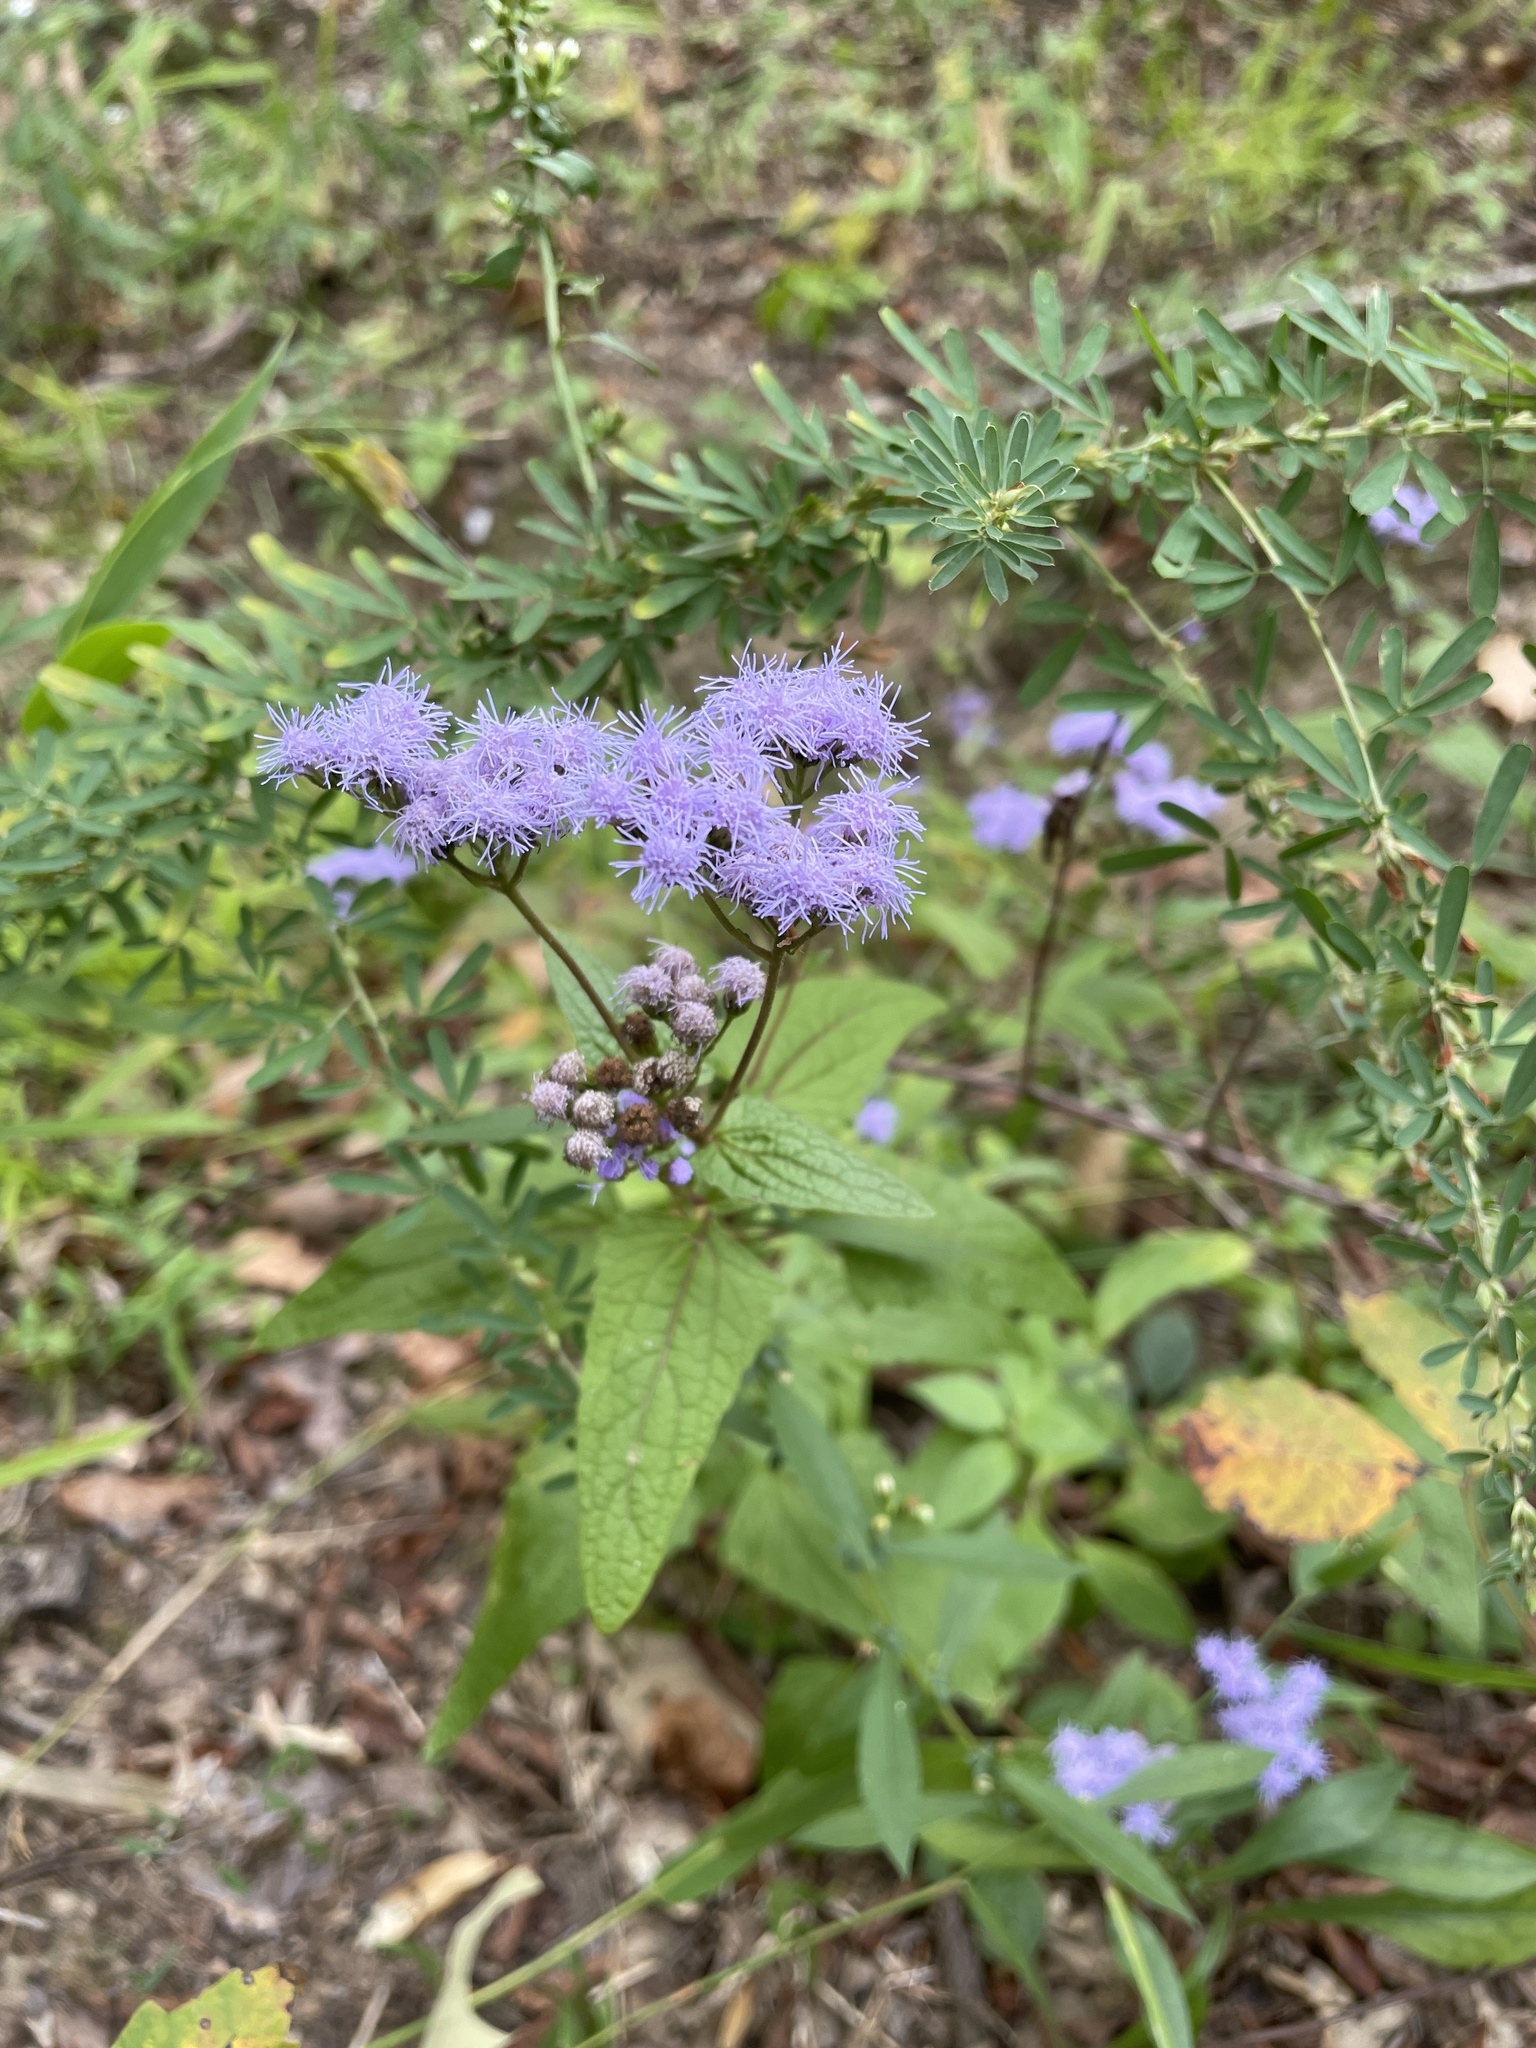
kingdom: Plantae
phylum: Tracheophyta
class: Magnoliopsida
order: Asterales
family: Asteraceae
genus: Conoclinium
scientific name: Conoclinium coelestinum
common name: Blue mistflower
